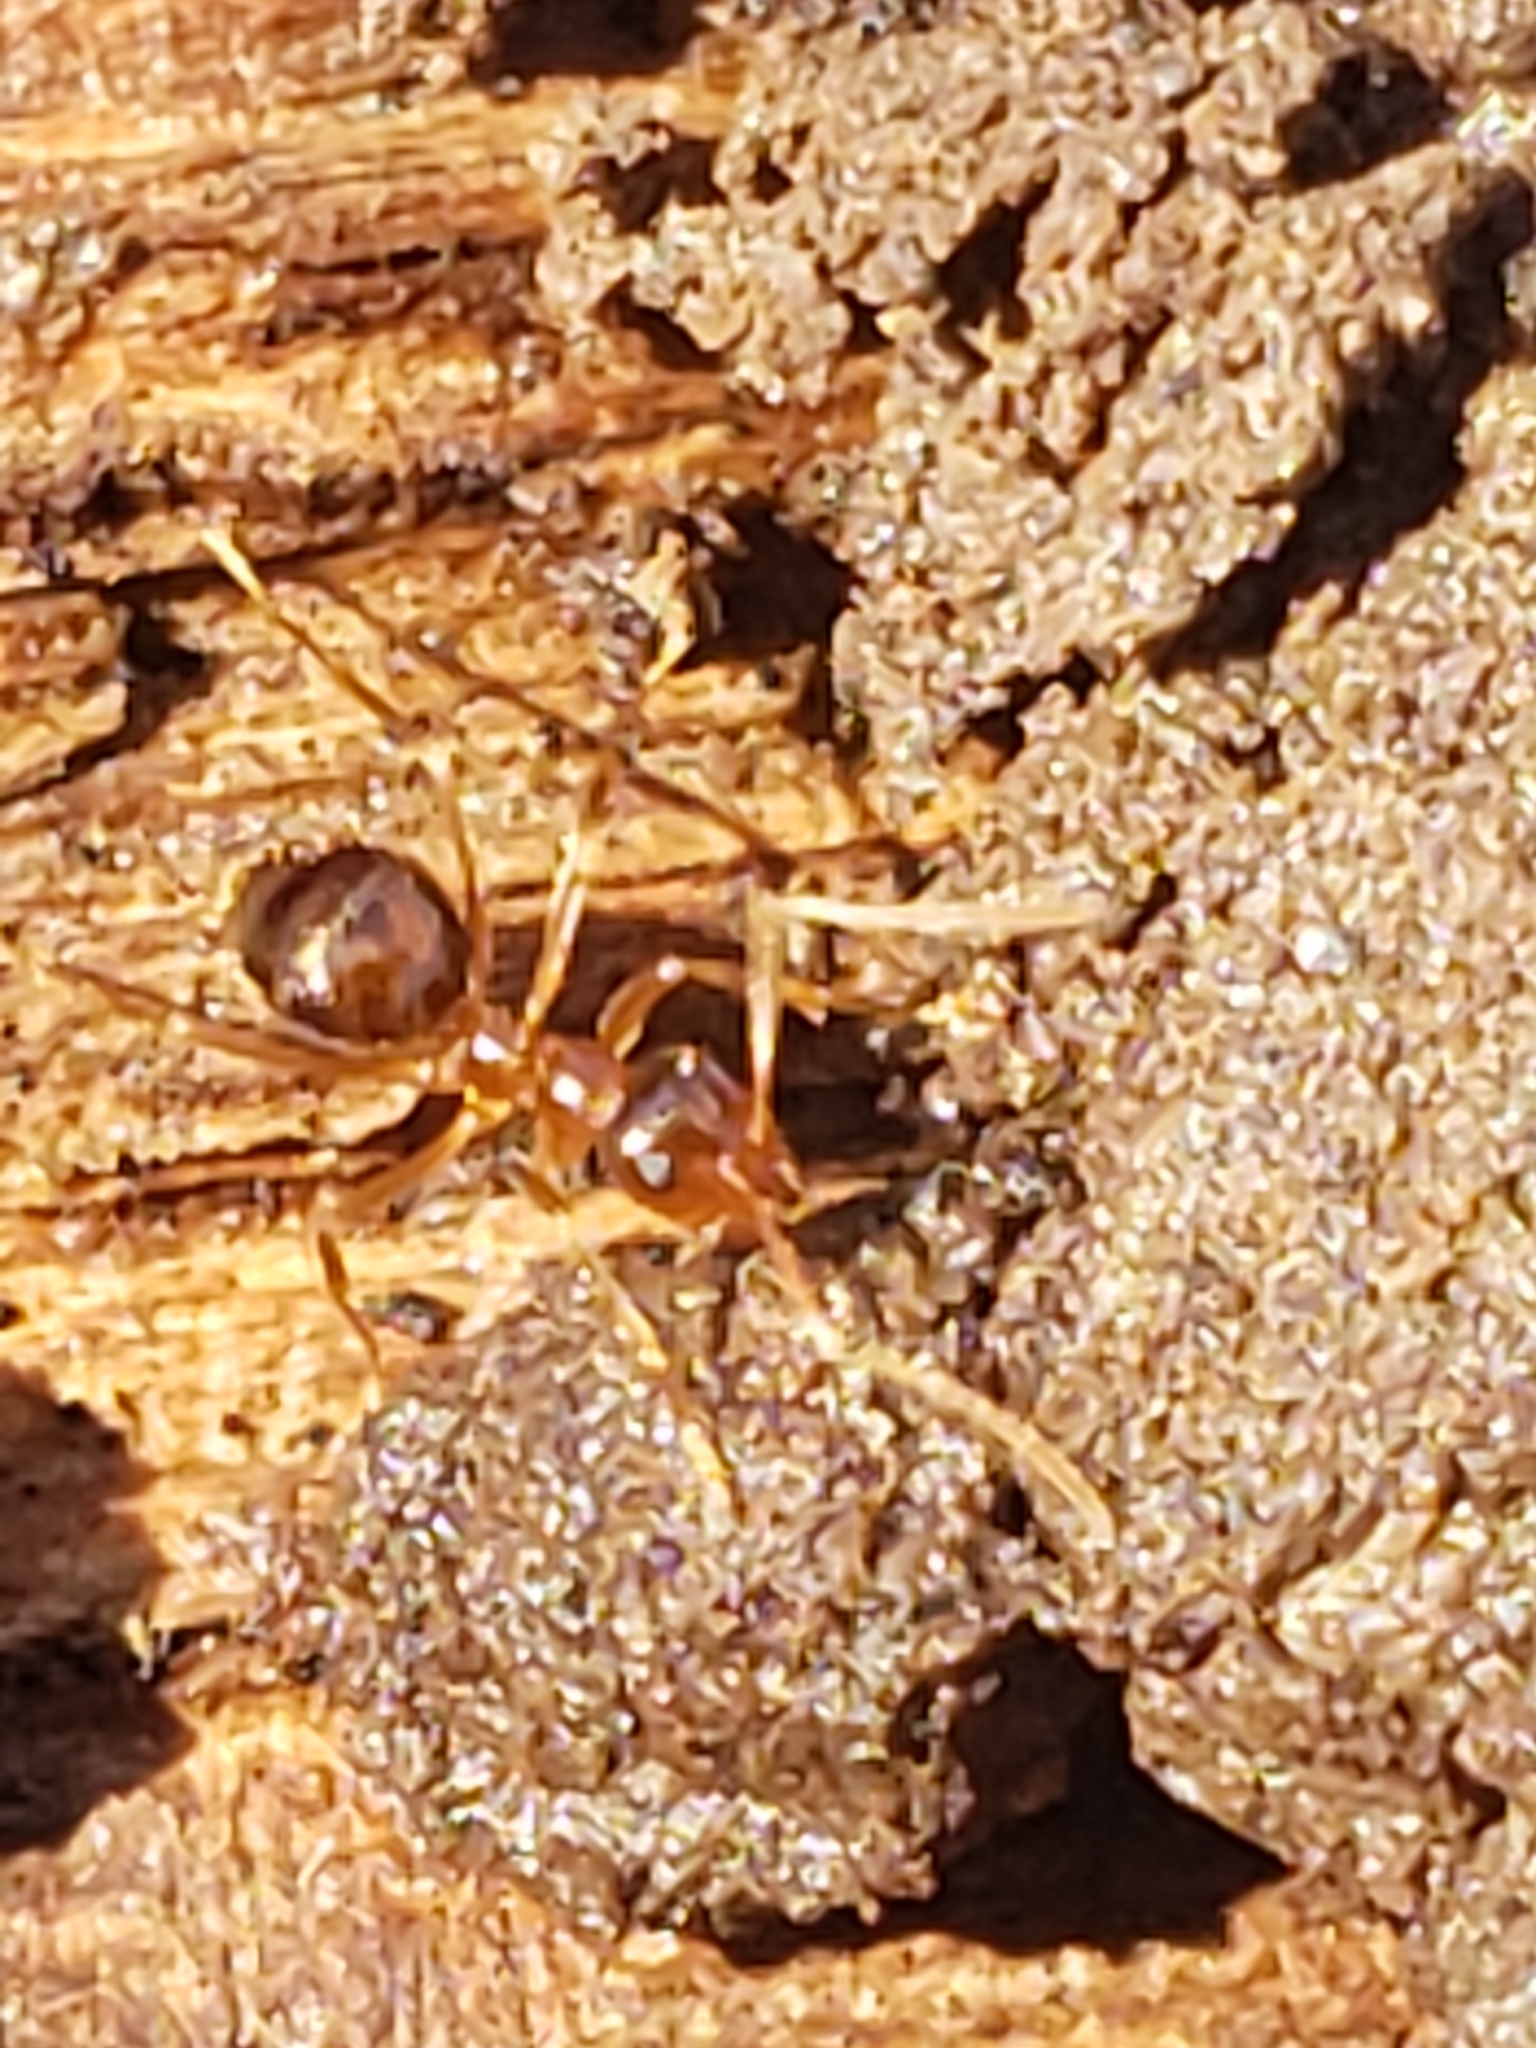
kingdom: Animalia
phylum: Arthropoda
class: Insecta
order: Hymenoptera
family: Formicidae
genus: Prenolepis
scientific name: Prenolepis imparis
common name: Small honey ant
